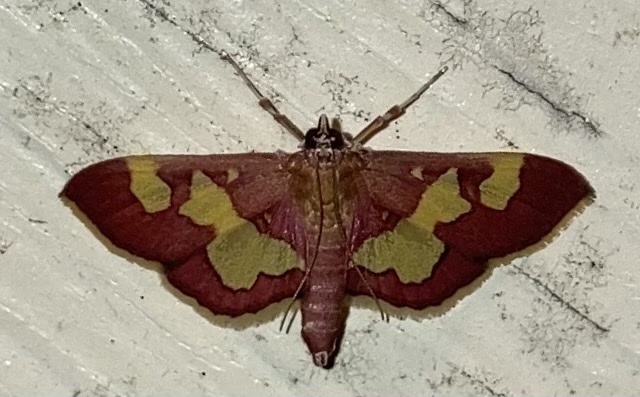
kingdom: Animalia
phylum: Arthropoda
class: Insecta
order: Lepidoptera
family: Crambidae
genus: Colomychus
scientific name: Colomychus talis
